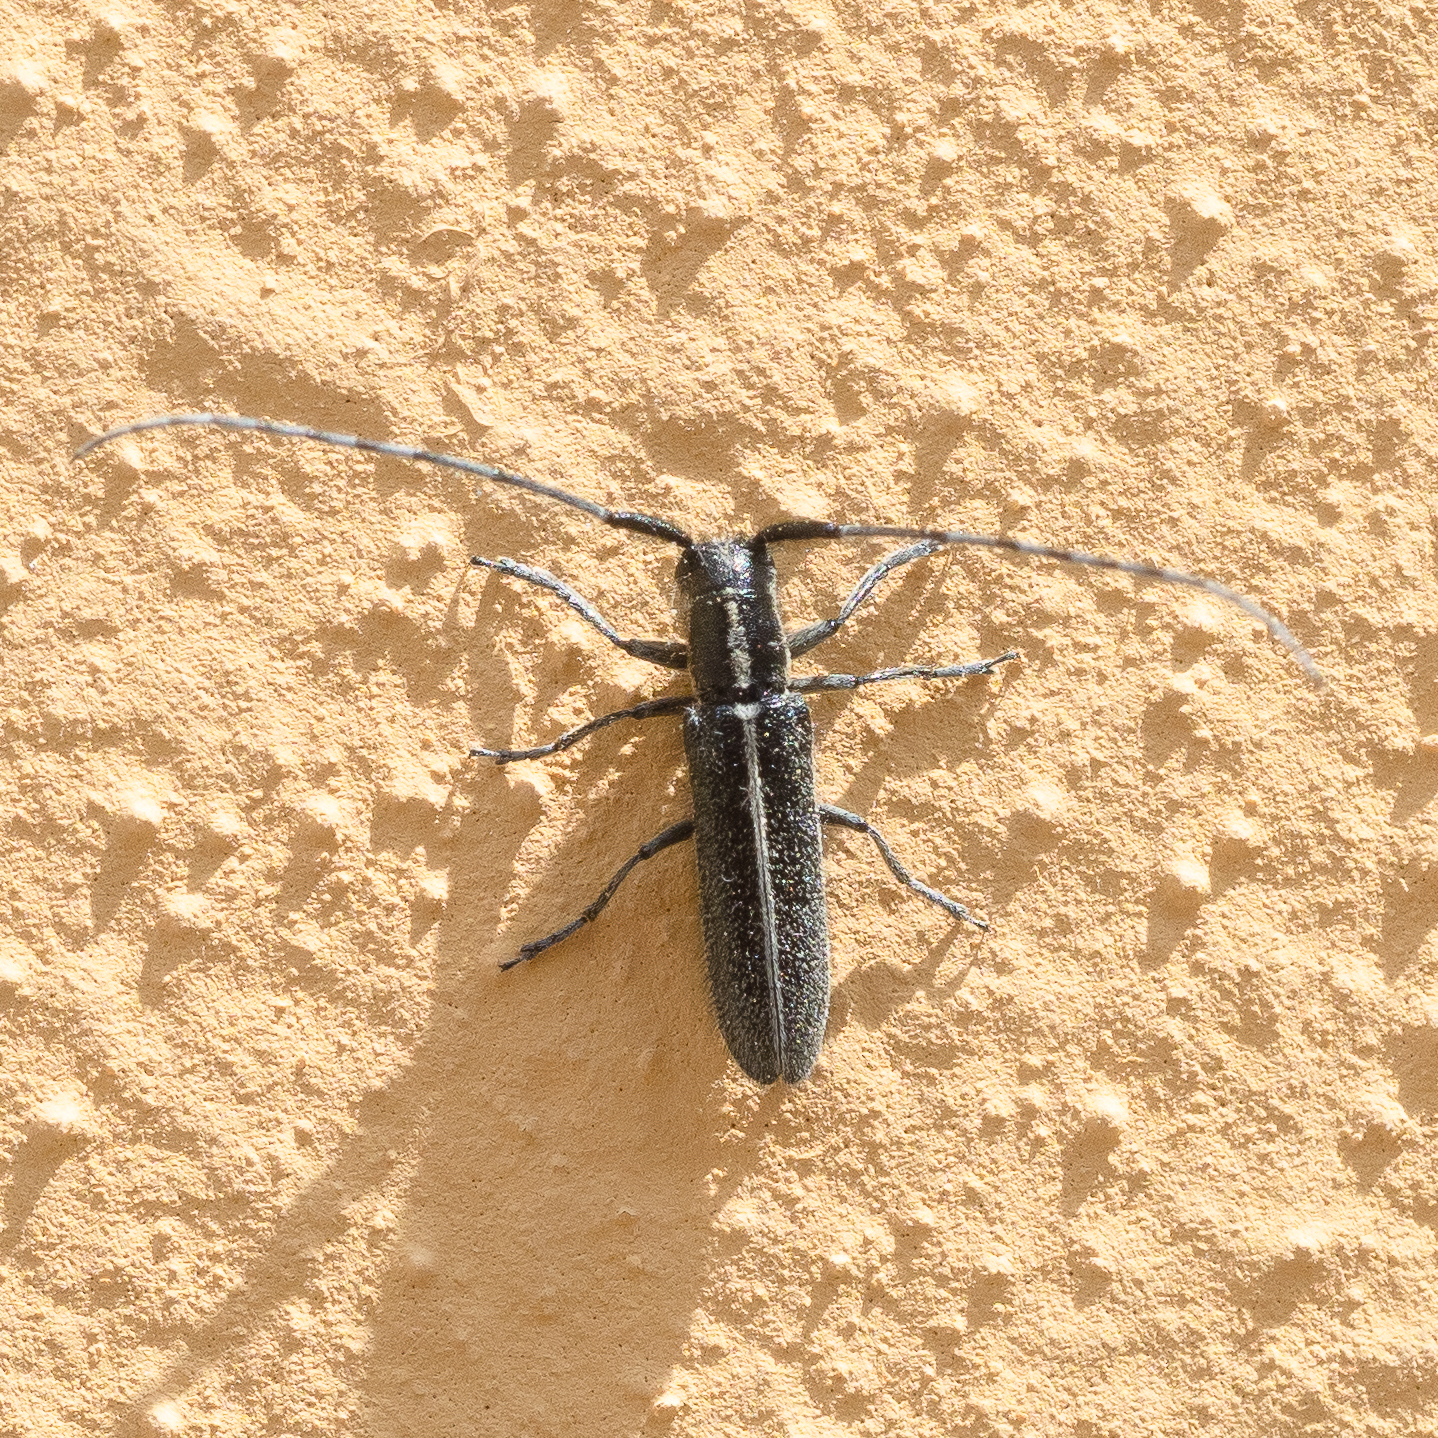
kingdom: Animalia
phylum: Arthropoda
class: Insecta
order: Coleoptera
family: Cerambycidae
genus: Agapanthia
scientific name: Agapanthia cardui
